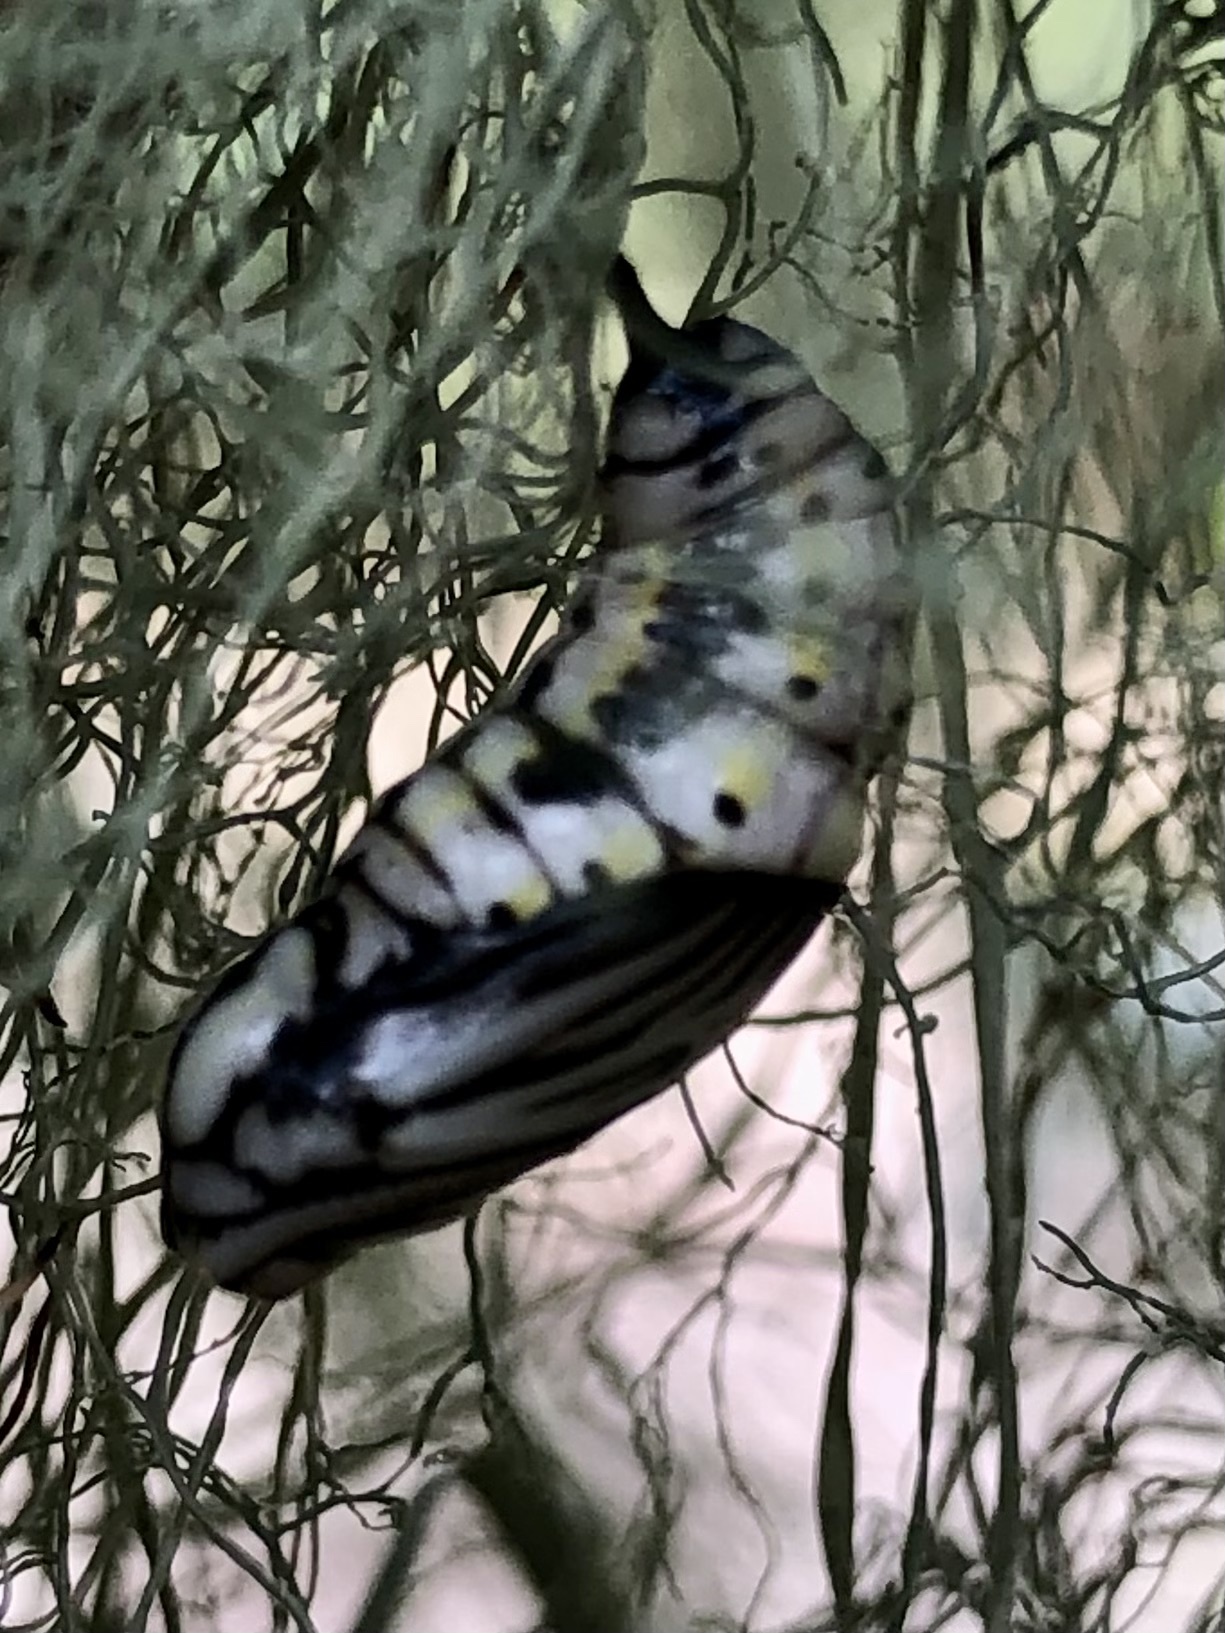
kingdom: Animalia
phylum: Arthropoda
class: Insecta
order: Lepidoptera
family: Notodontidae
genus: Phryganidia
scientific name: Phryganidia californica
